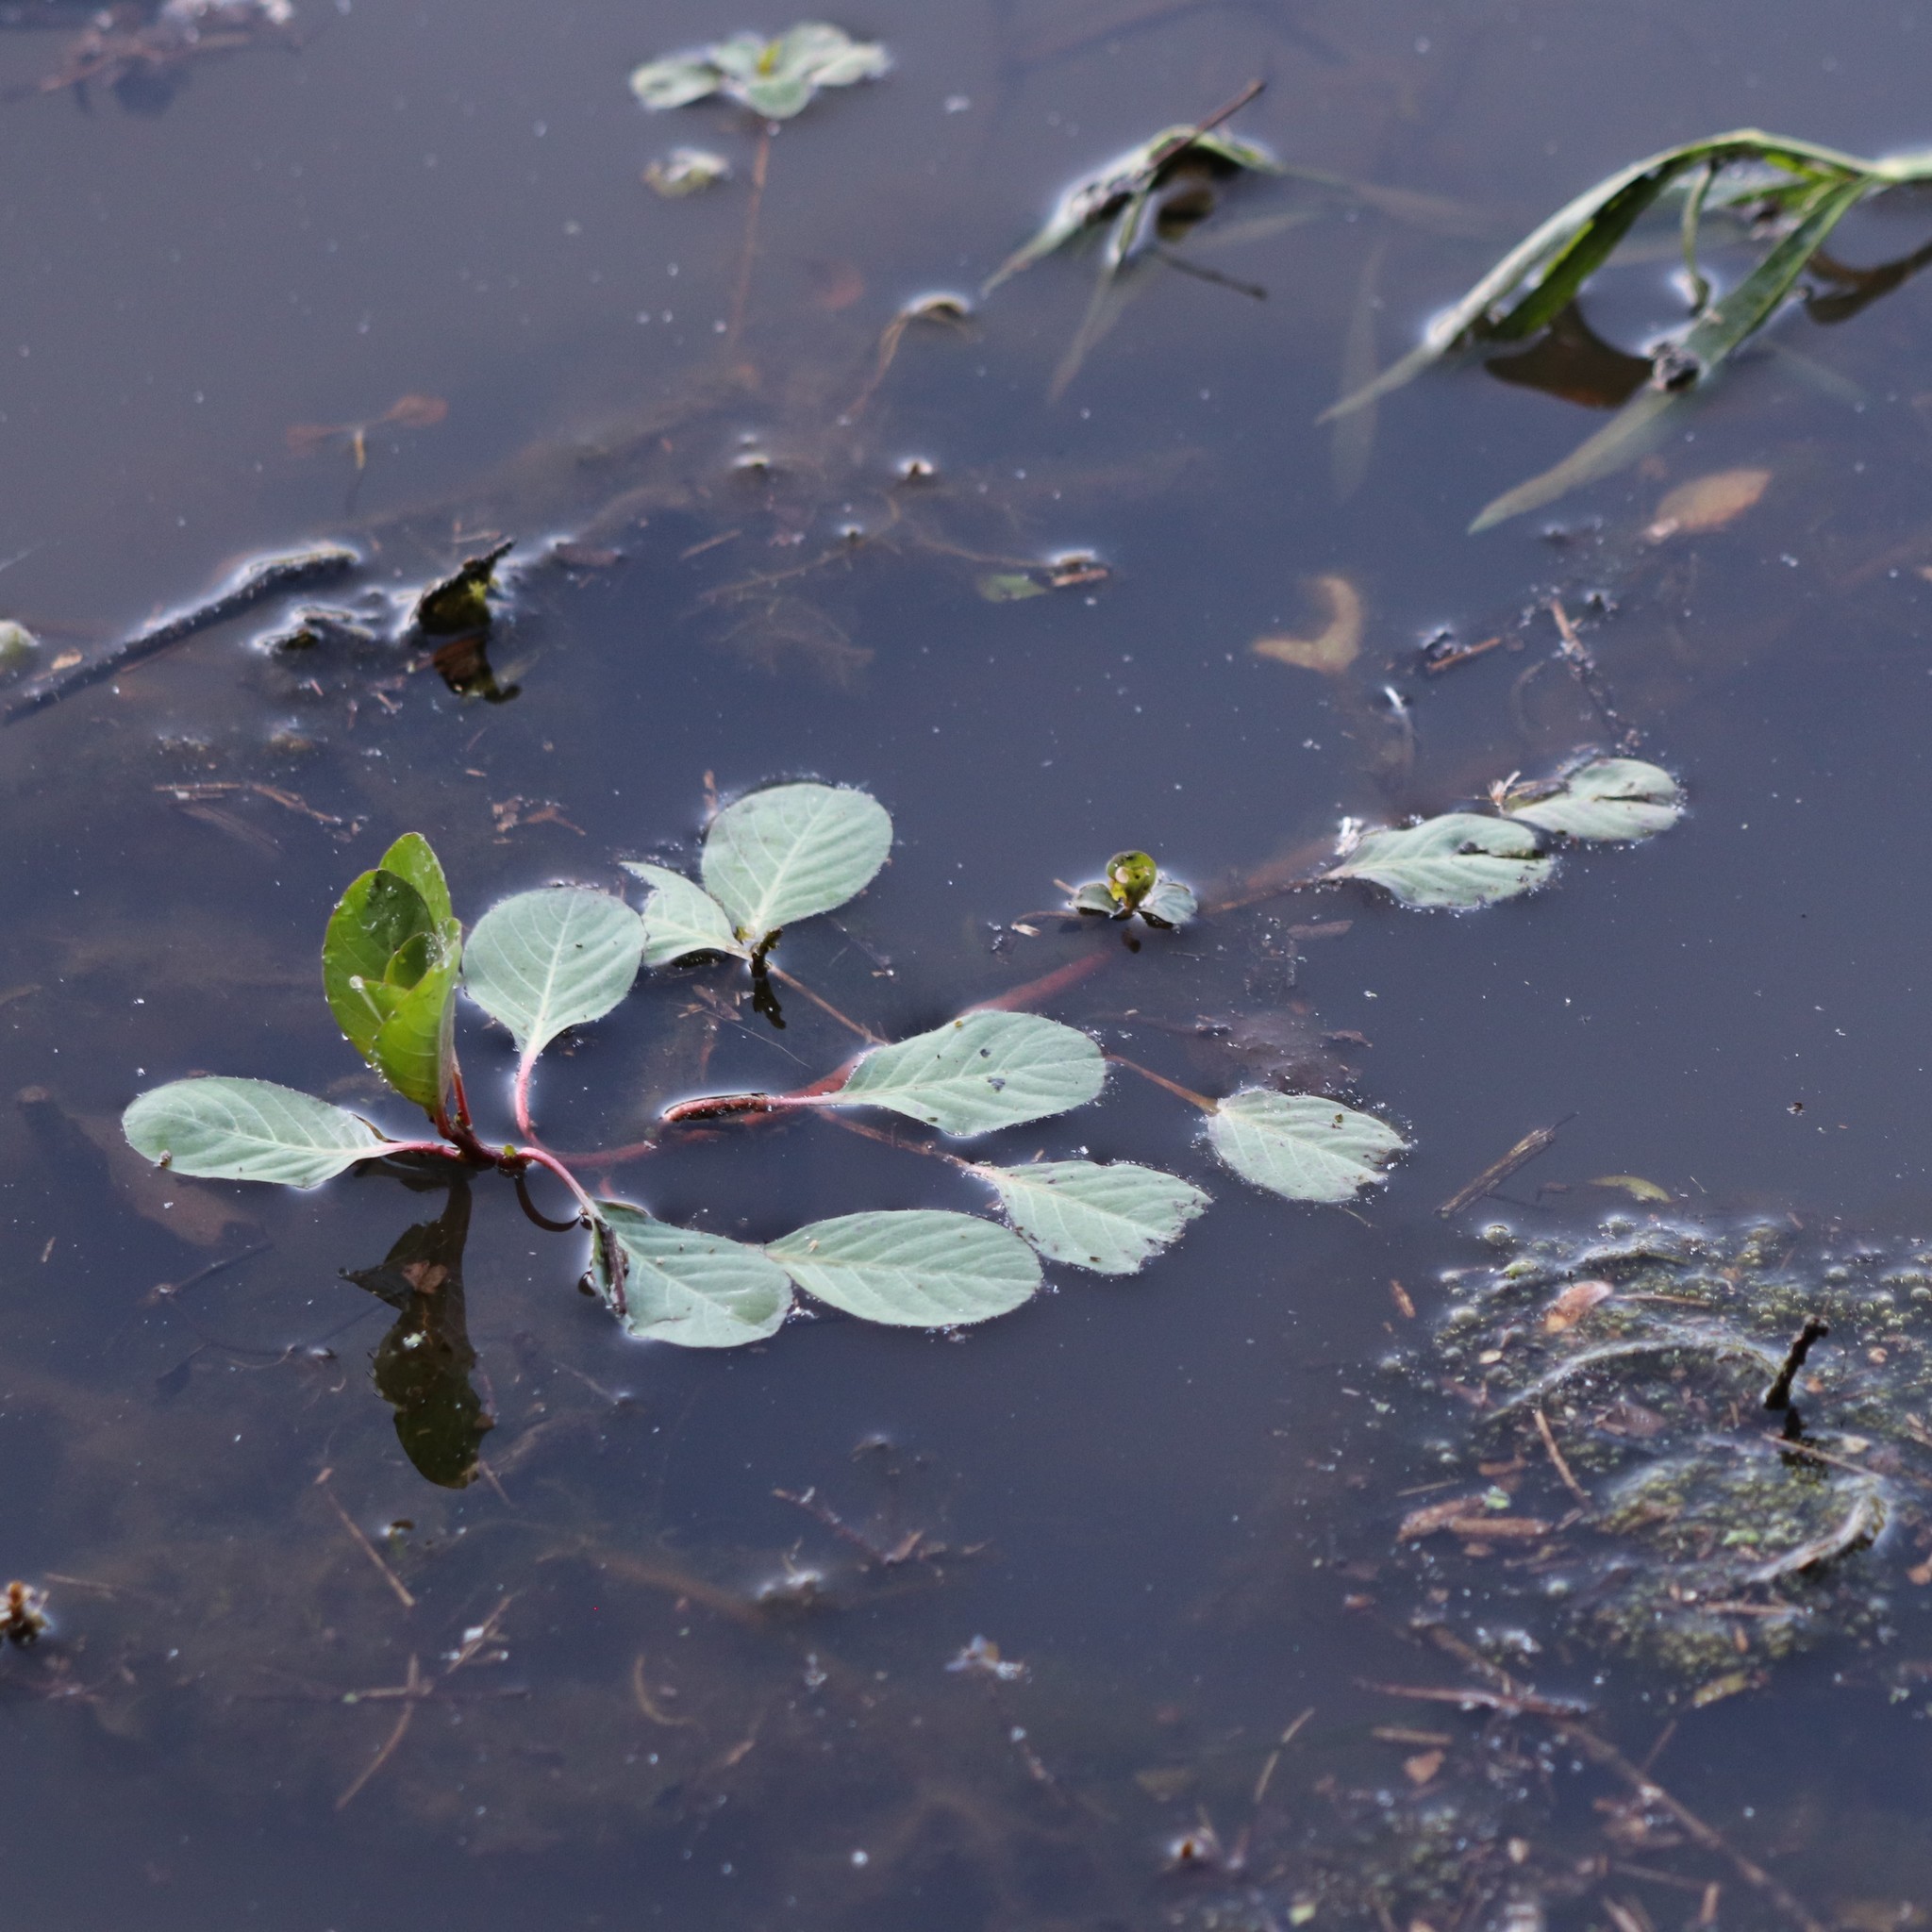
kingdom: Plantae
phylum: Tracheophyta
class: Magnoliopsida
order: Myrtales
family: Onagraceae
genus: Ludwigia
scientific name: Ludwigia peploides
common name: Floating primrose-willow
